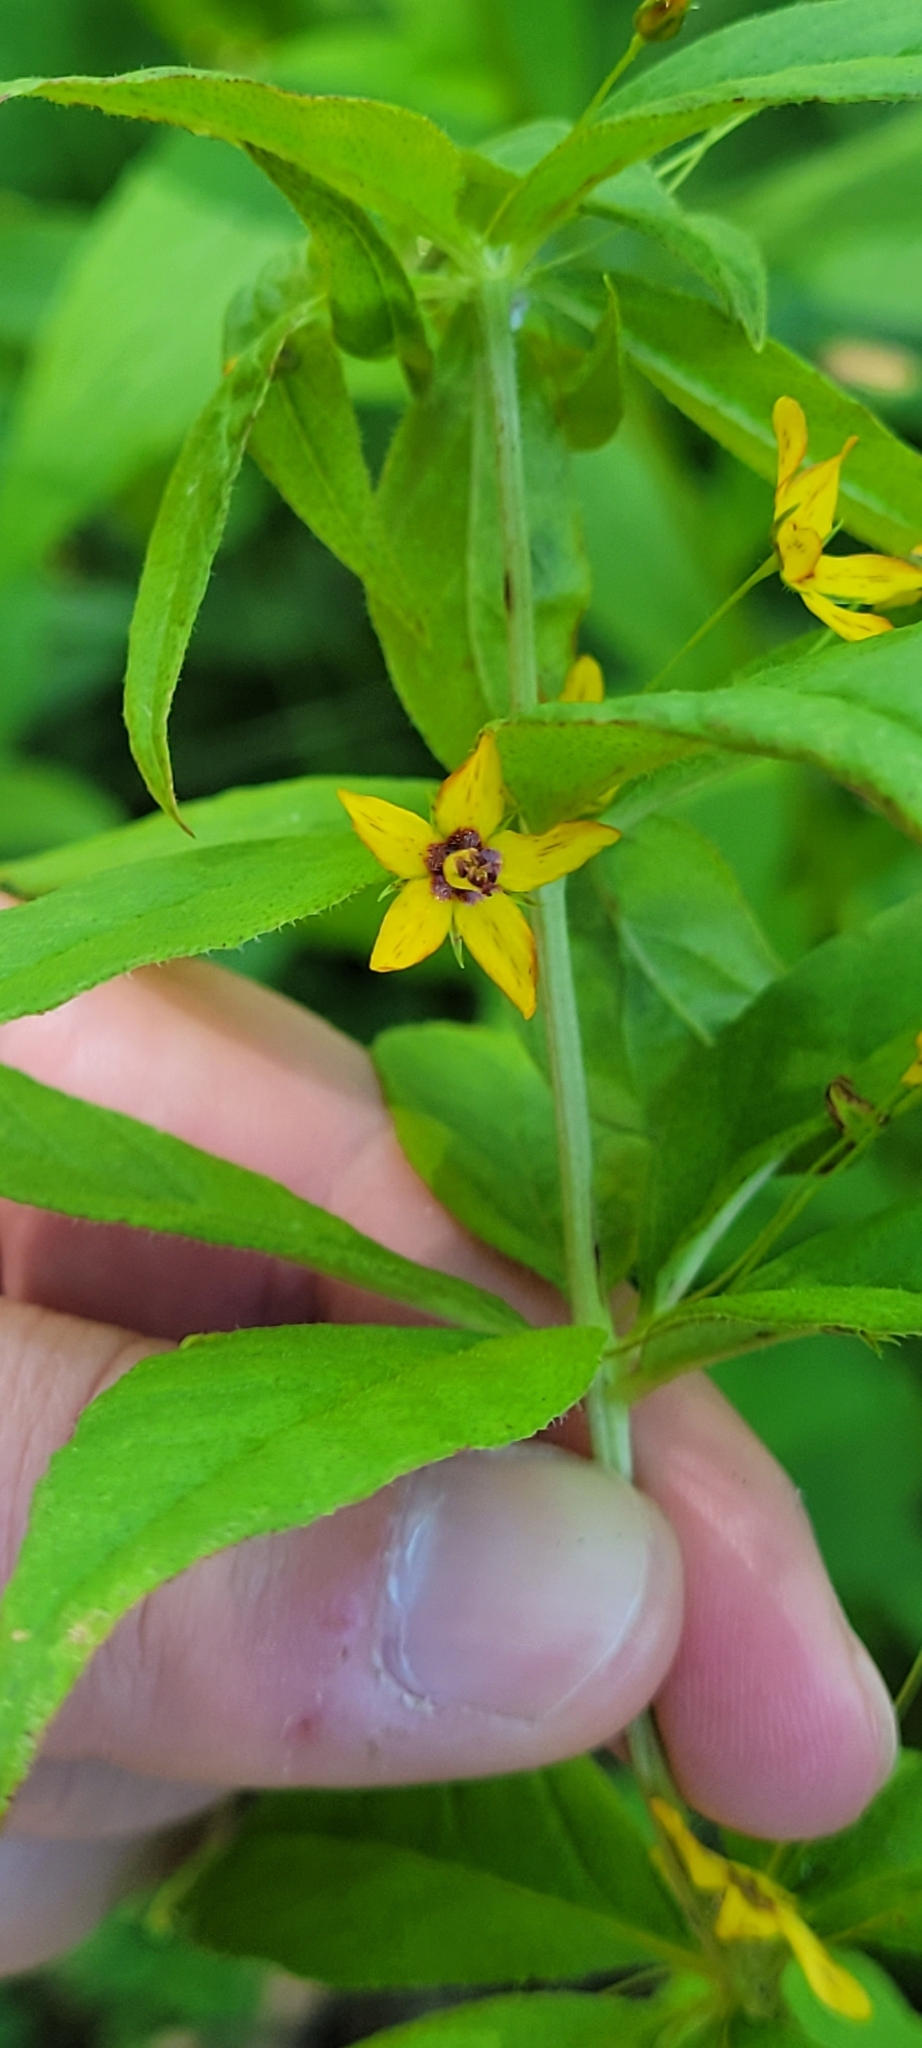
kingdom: Plantae
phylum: Tracheophyta
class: Magnoliopsida
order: Ericales
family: Primulaceae
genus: Lysimachia
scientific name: Lysimachia quadrifolia
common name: Whorled loosestrife
